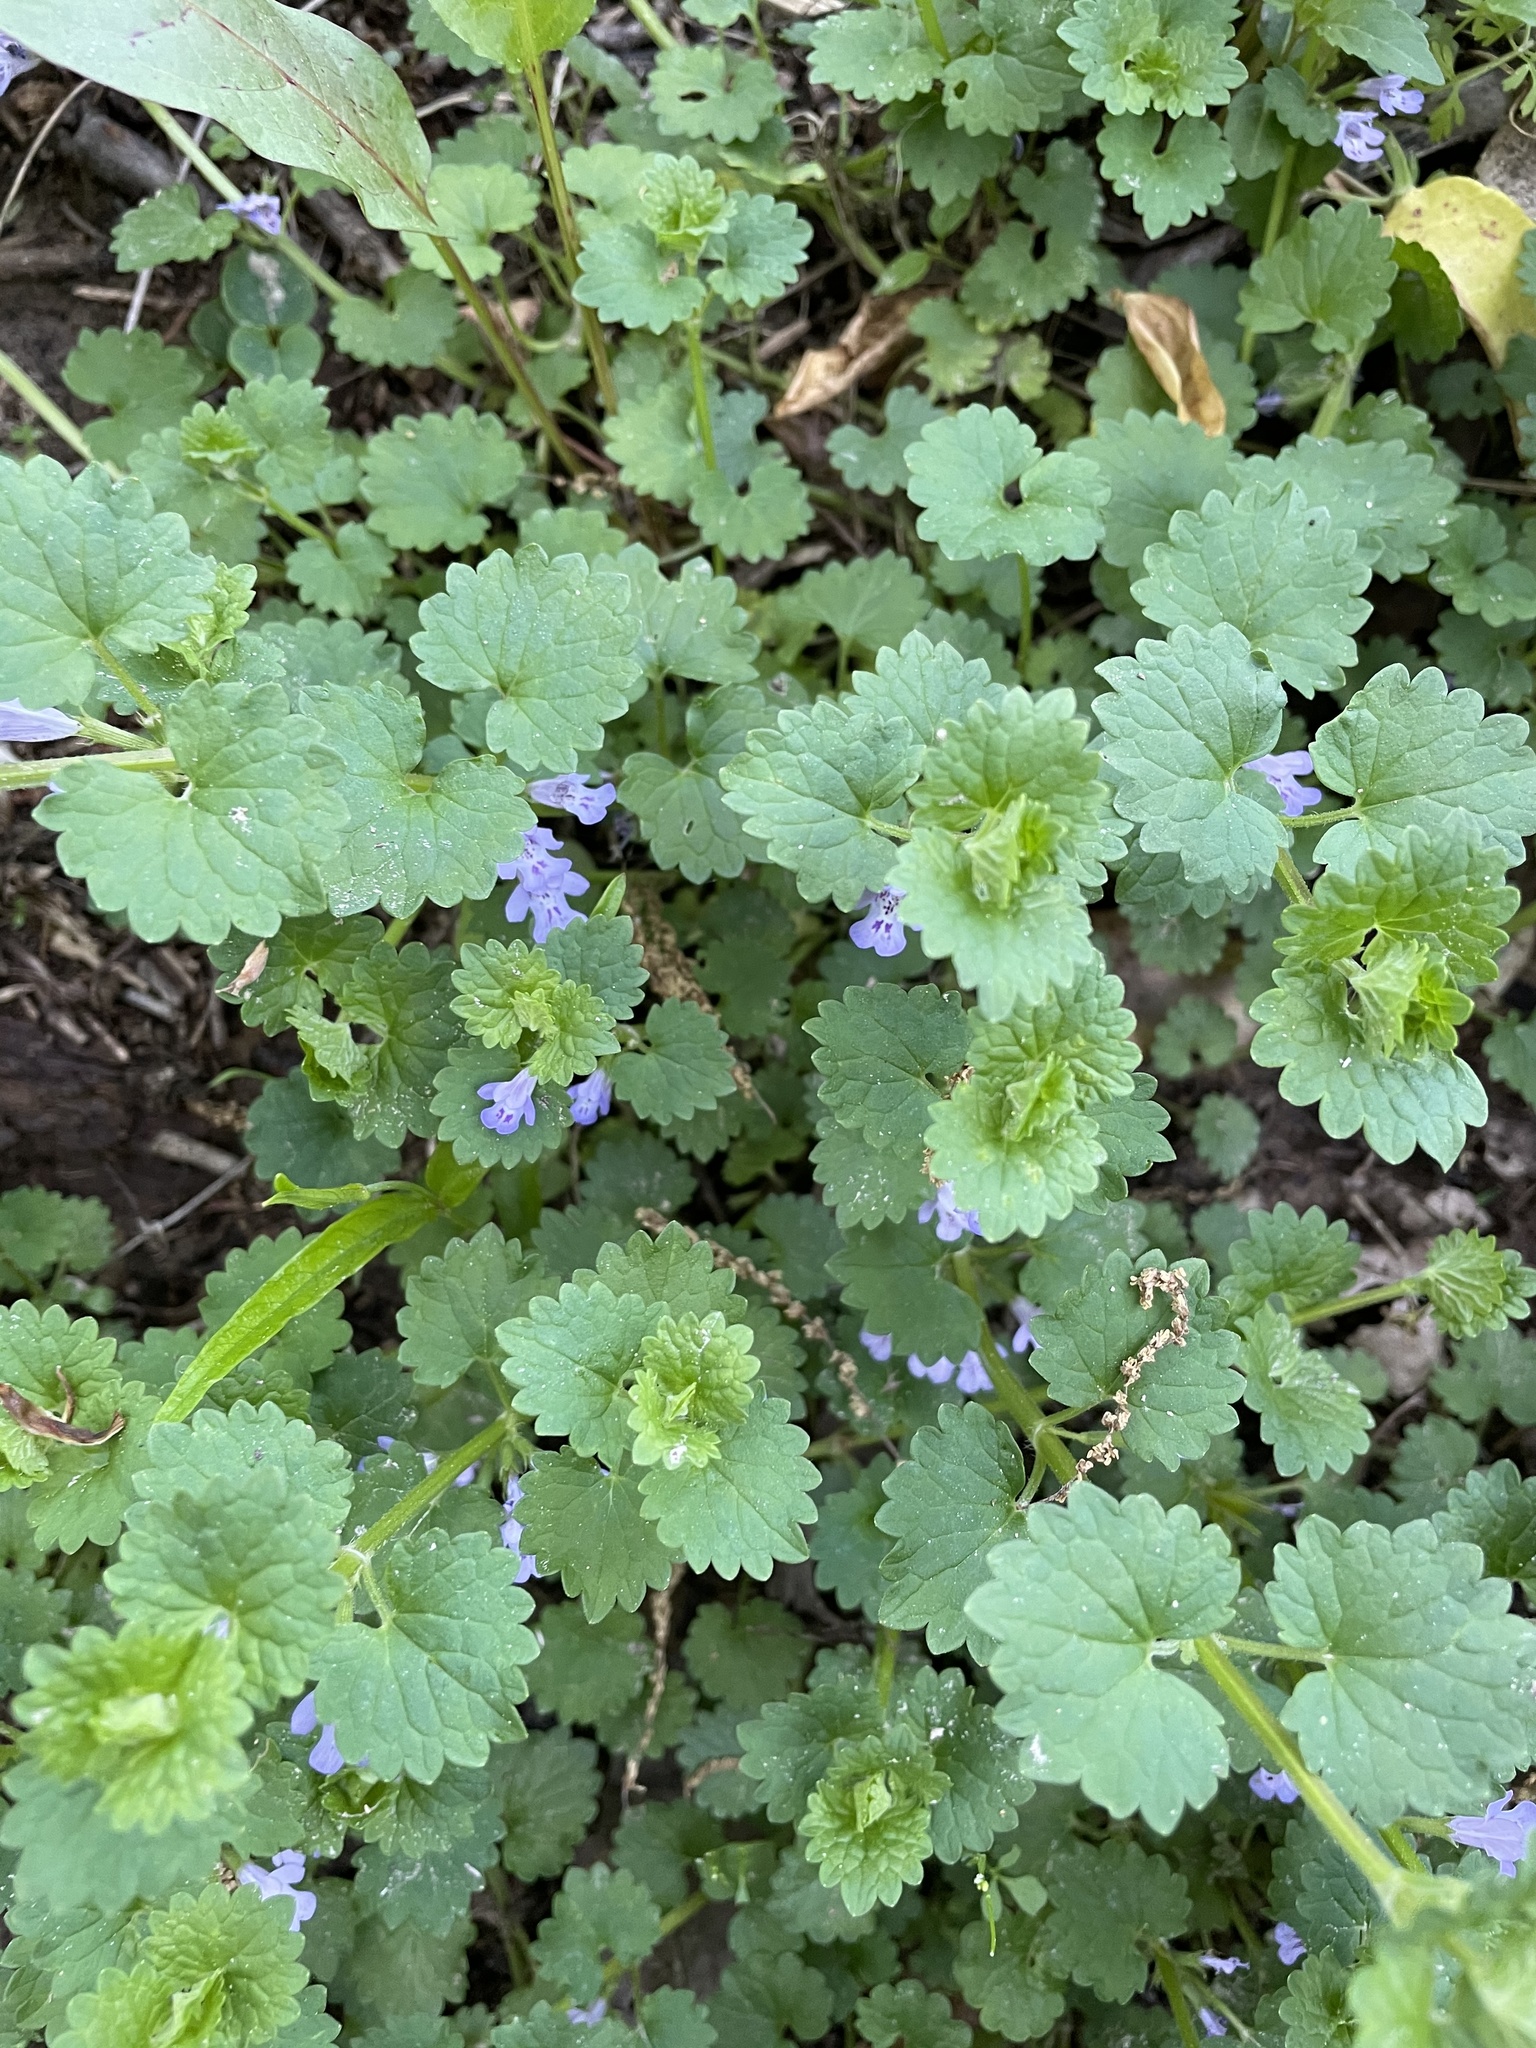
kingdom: Plantae
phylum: Tracheophyta
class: Magnoliopsida
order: Lamiales
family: Lamiaceae
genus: Glechoma
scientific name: Glechoma hederacea
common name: Ground ivy
